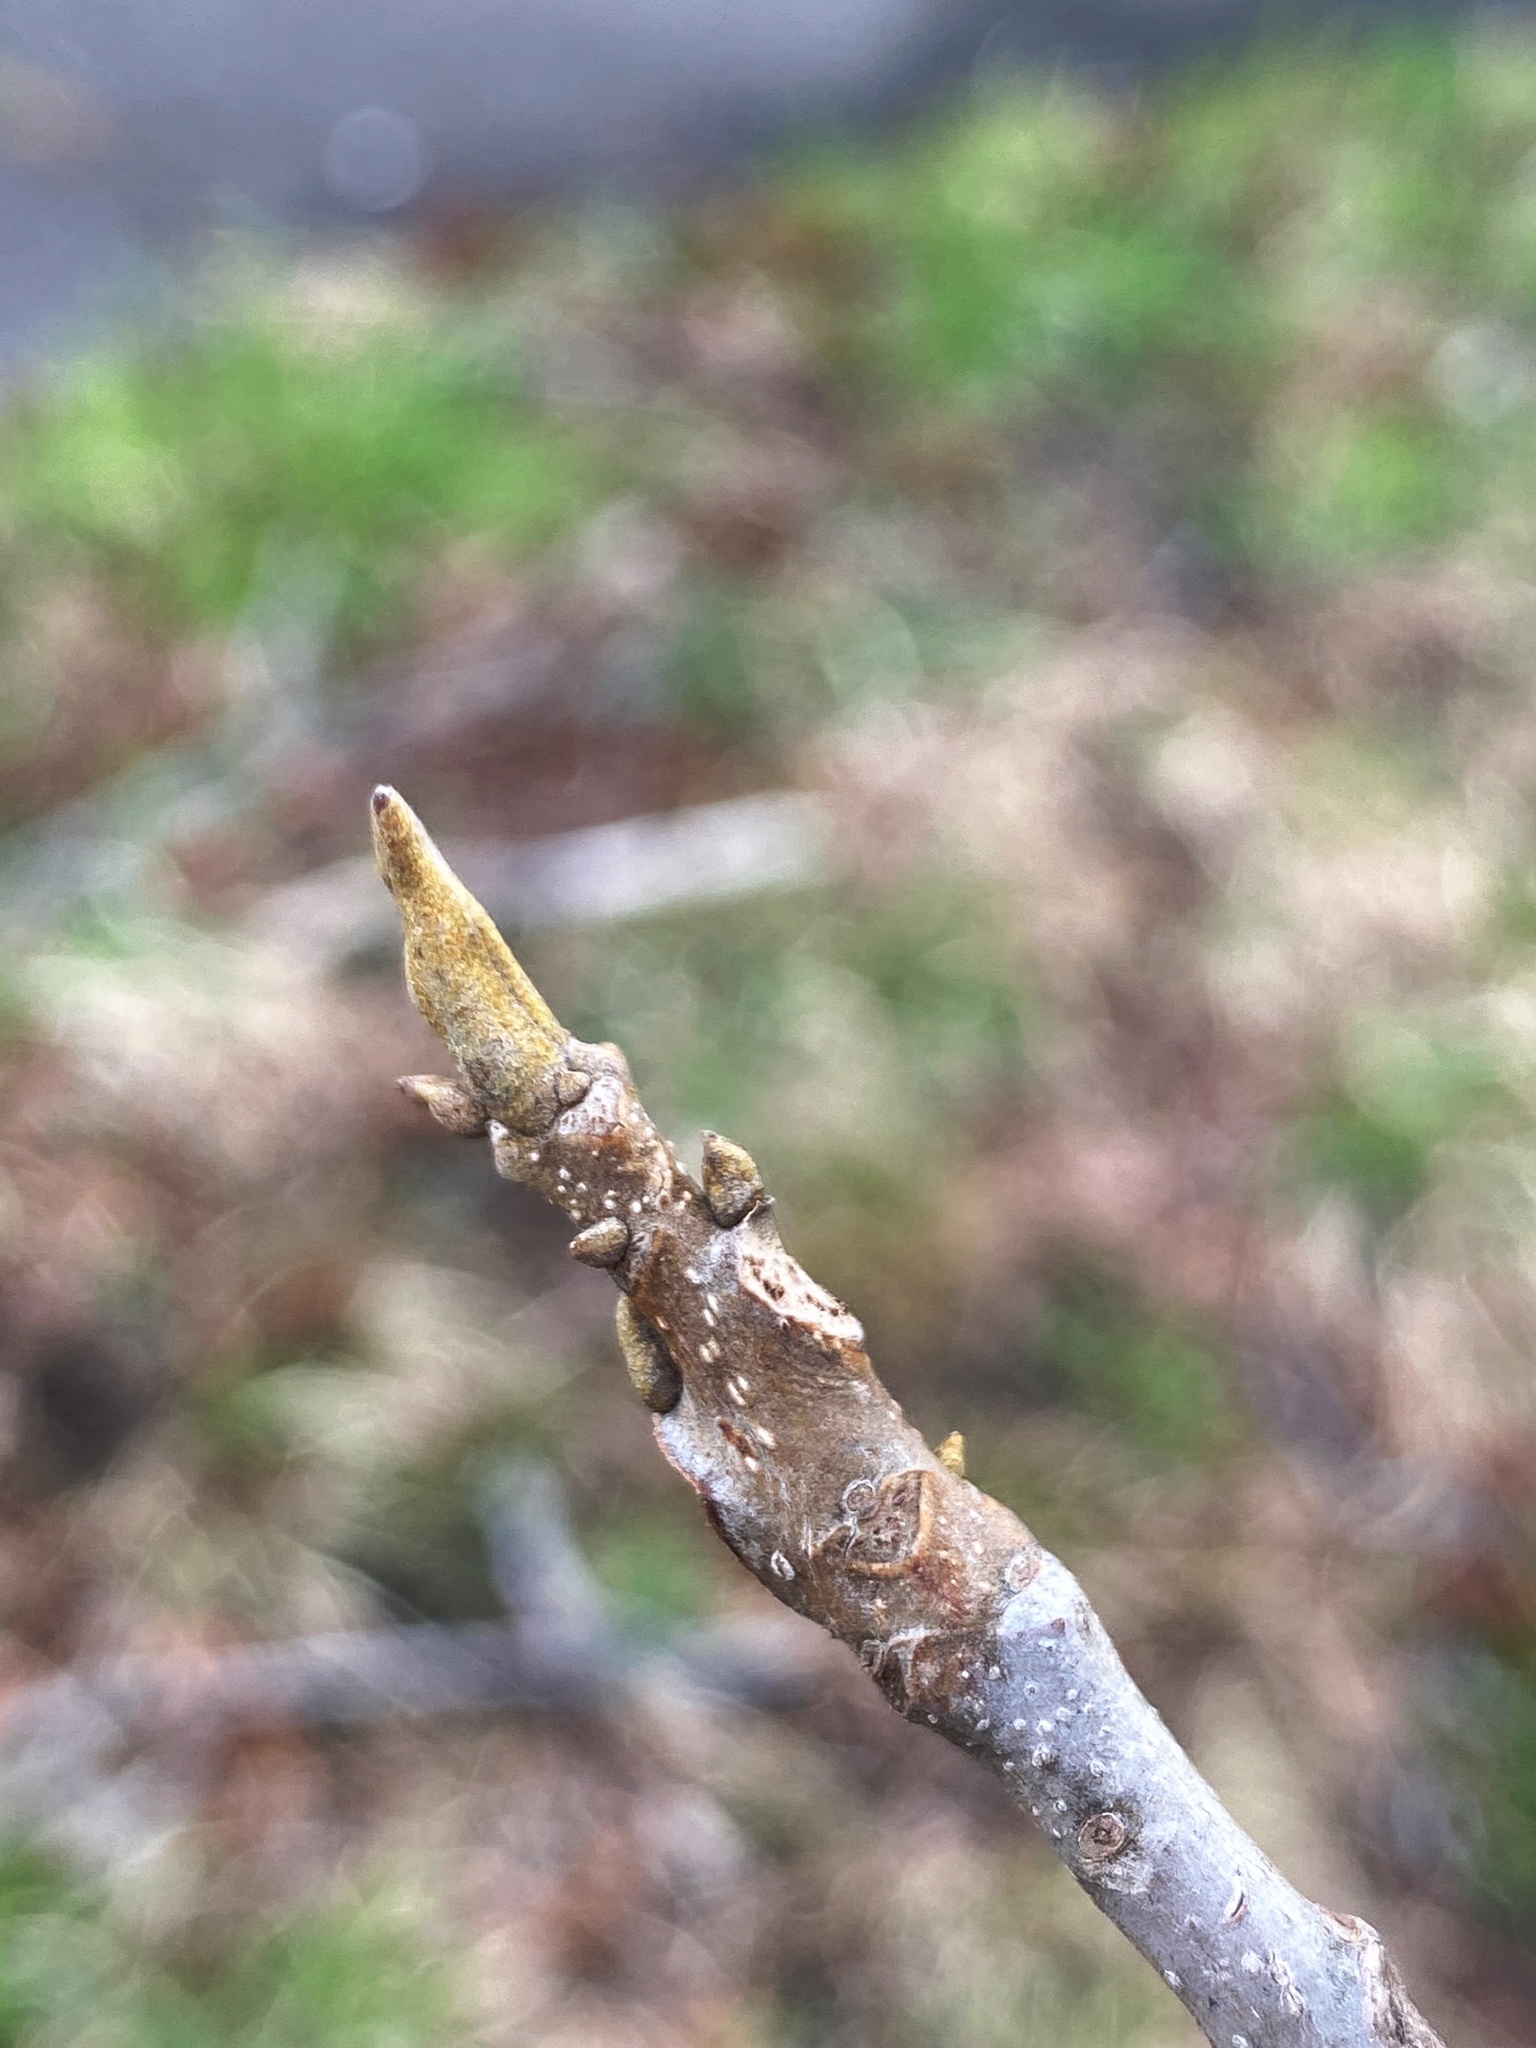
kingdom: Plantae
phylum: Tracheophyta
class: Magnoliopsida
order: Fagales
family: Juglandaceae
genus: Carya
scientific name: Carya cordiformis
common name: Bitternut hickory
